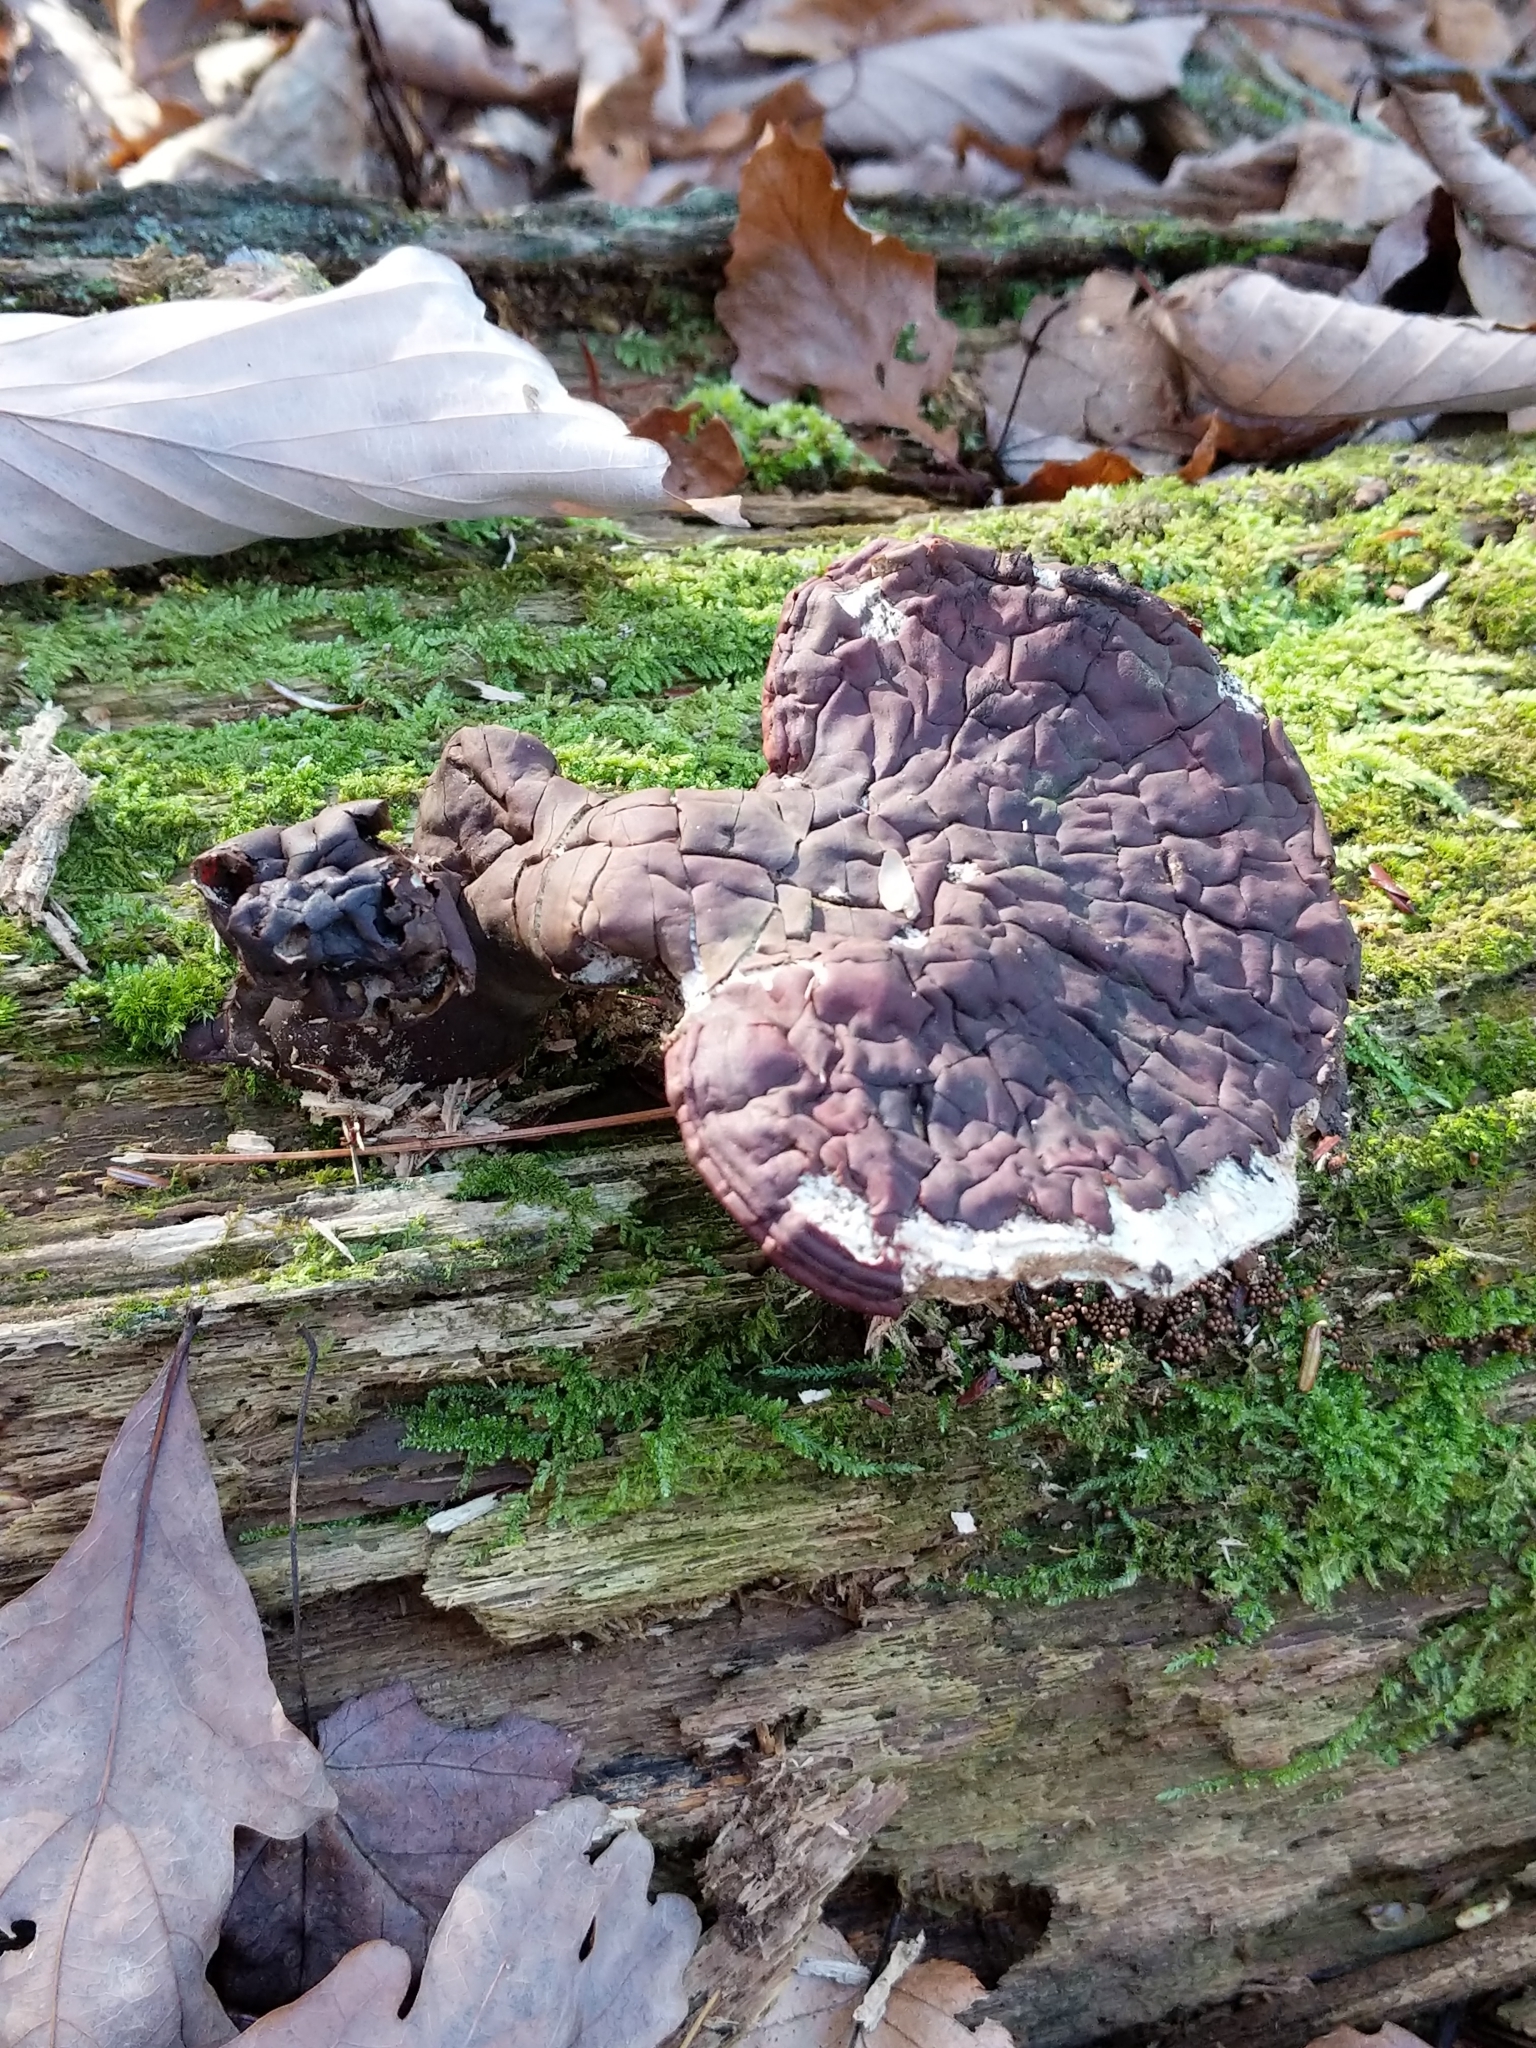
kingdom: Fungi
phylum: Basidiomycota
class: Agaricomycetes
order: Polyporales
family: Polyporaceae
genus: Ganoderma
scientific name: Ganoderma tsugae
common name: Hemlock varnish shelf
